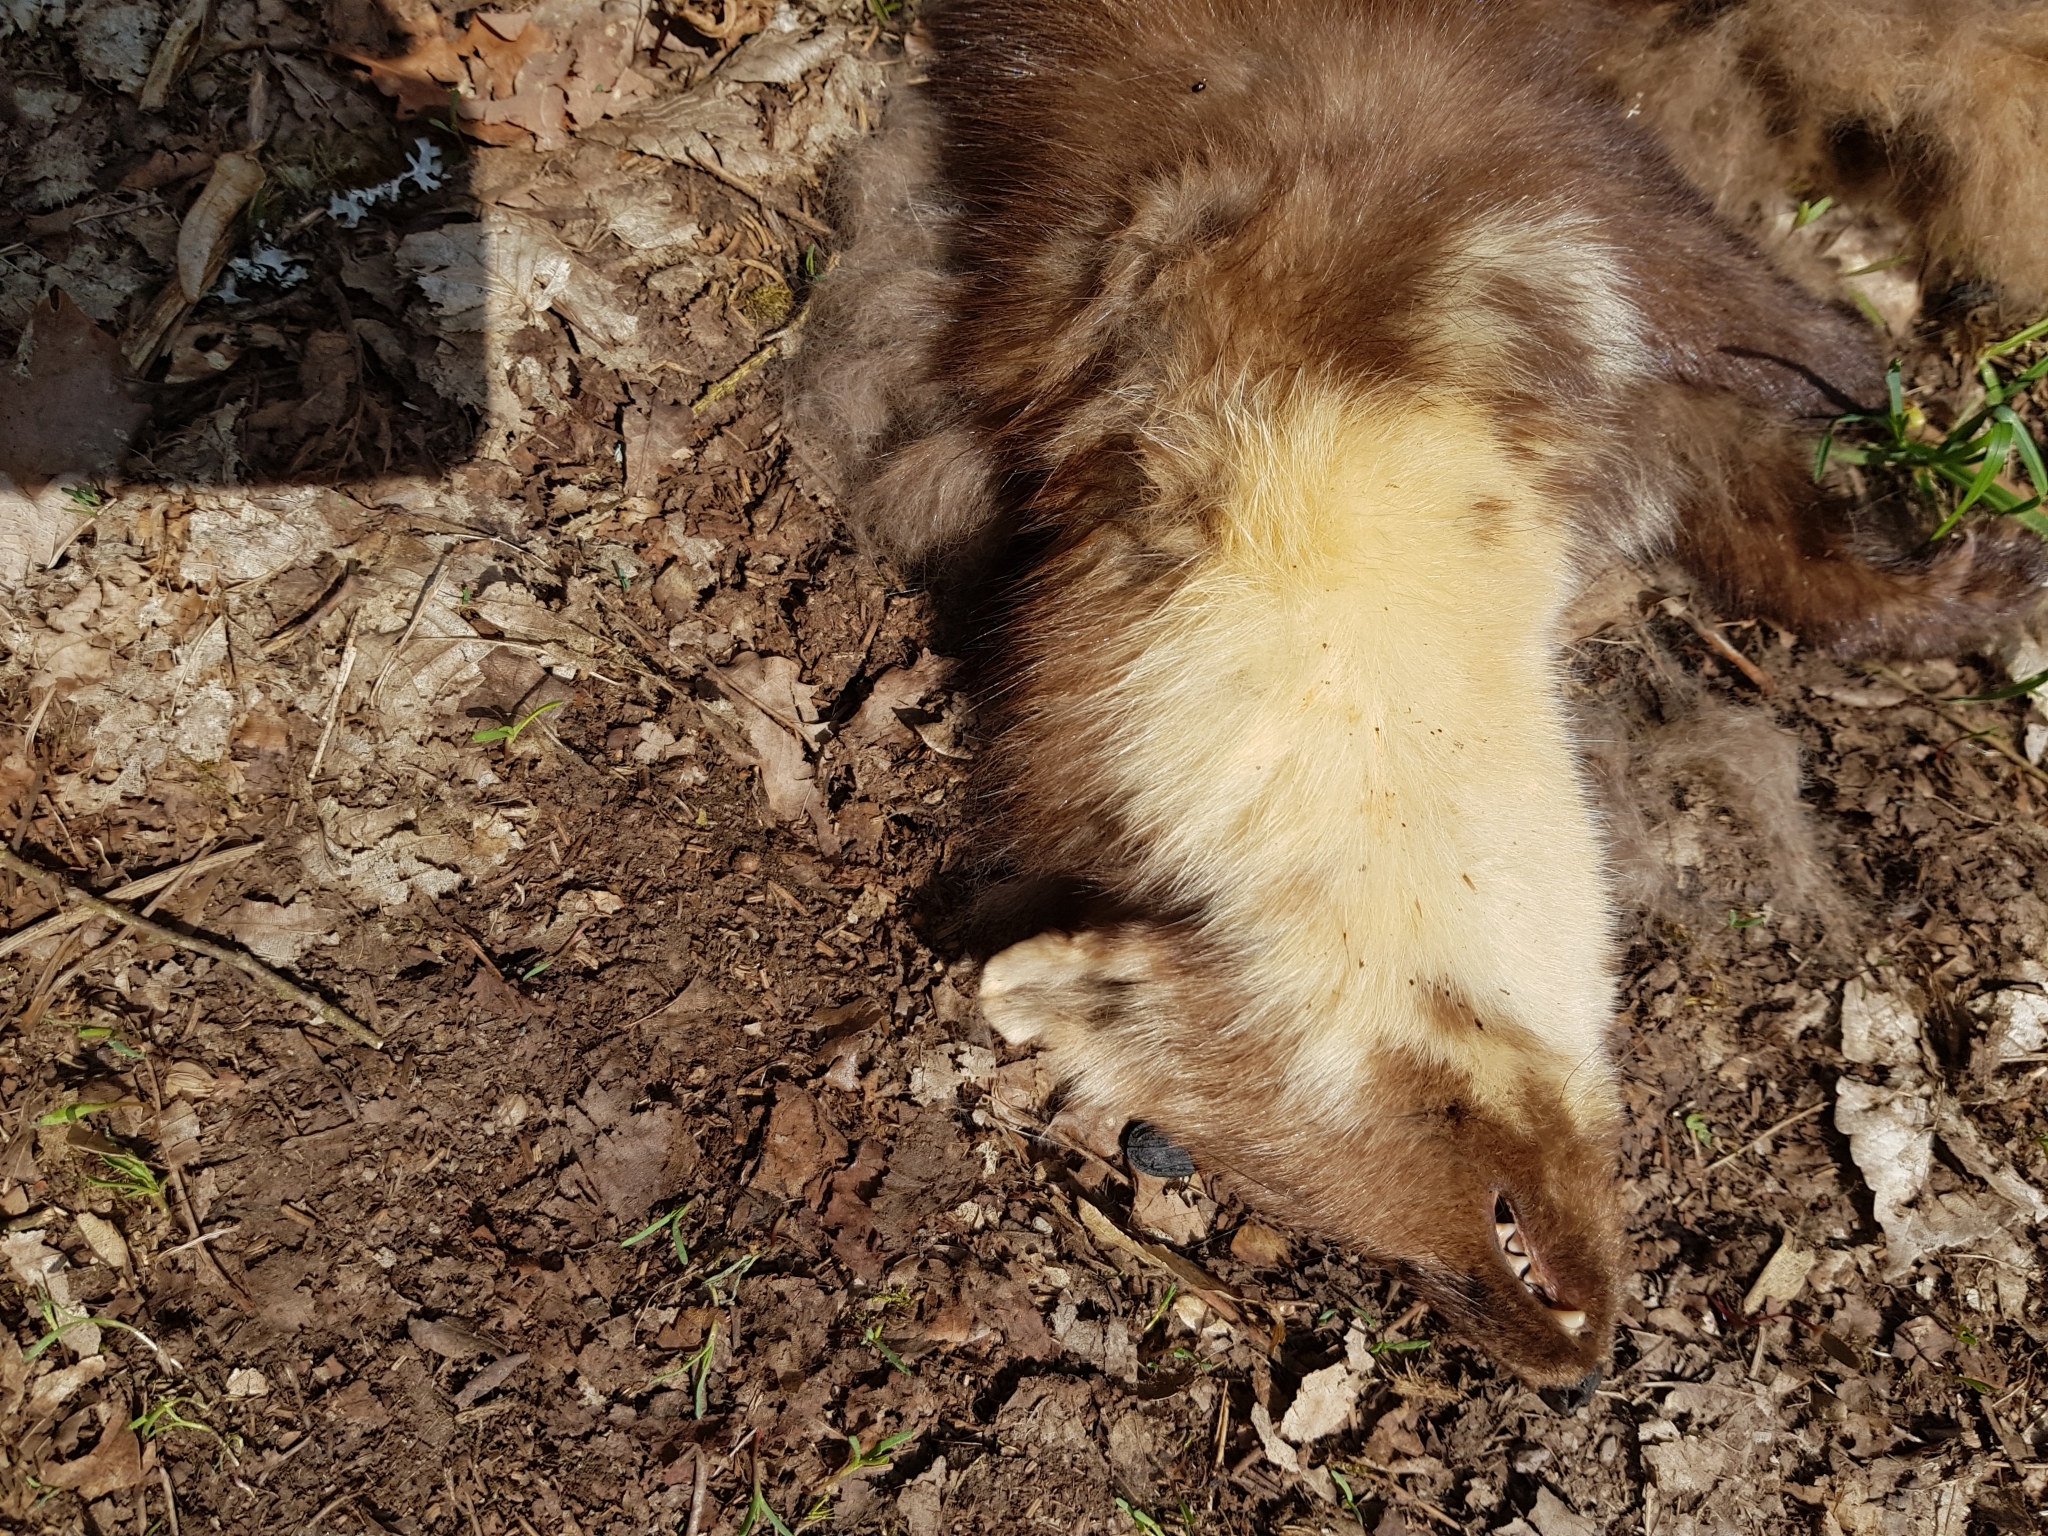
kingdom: Animalia
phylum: Chordata
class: Mammalia
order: Carnivora
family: Mustelidae
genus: Martes
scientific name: Martes martes
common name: European pine marten
